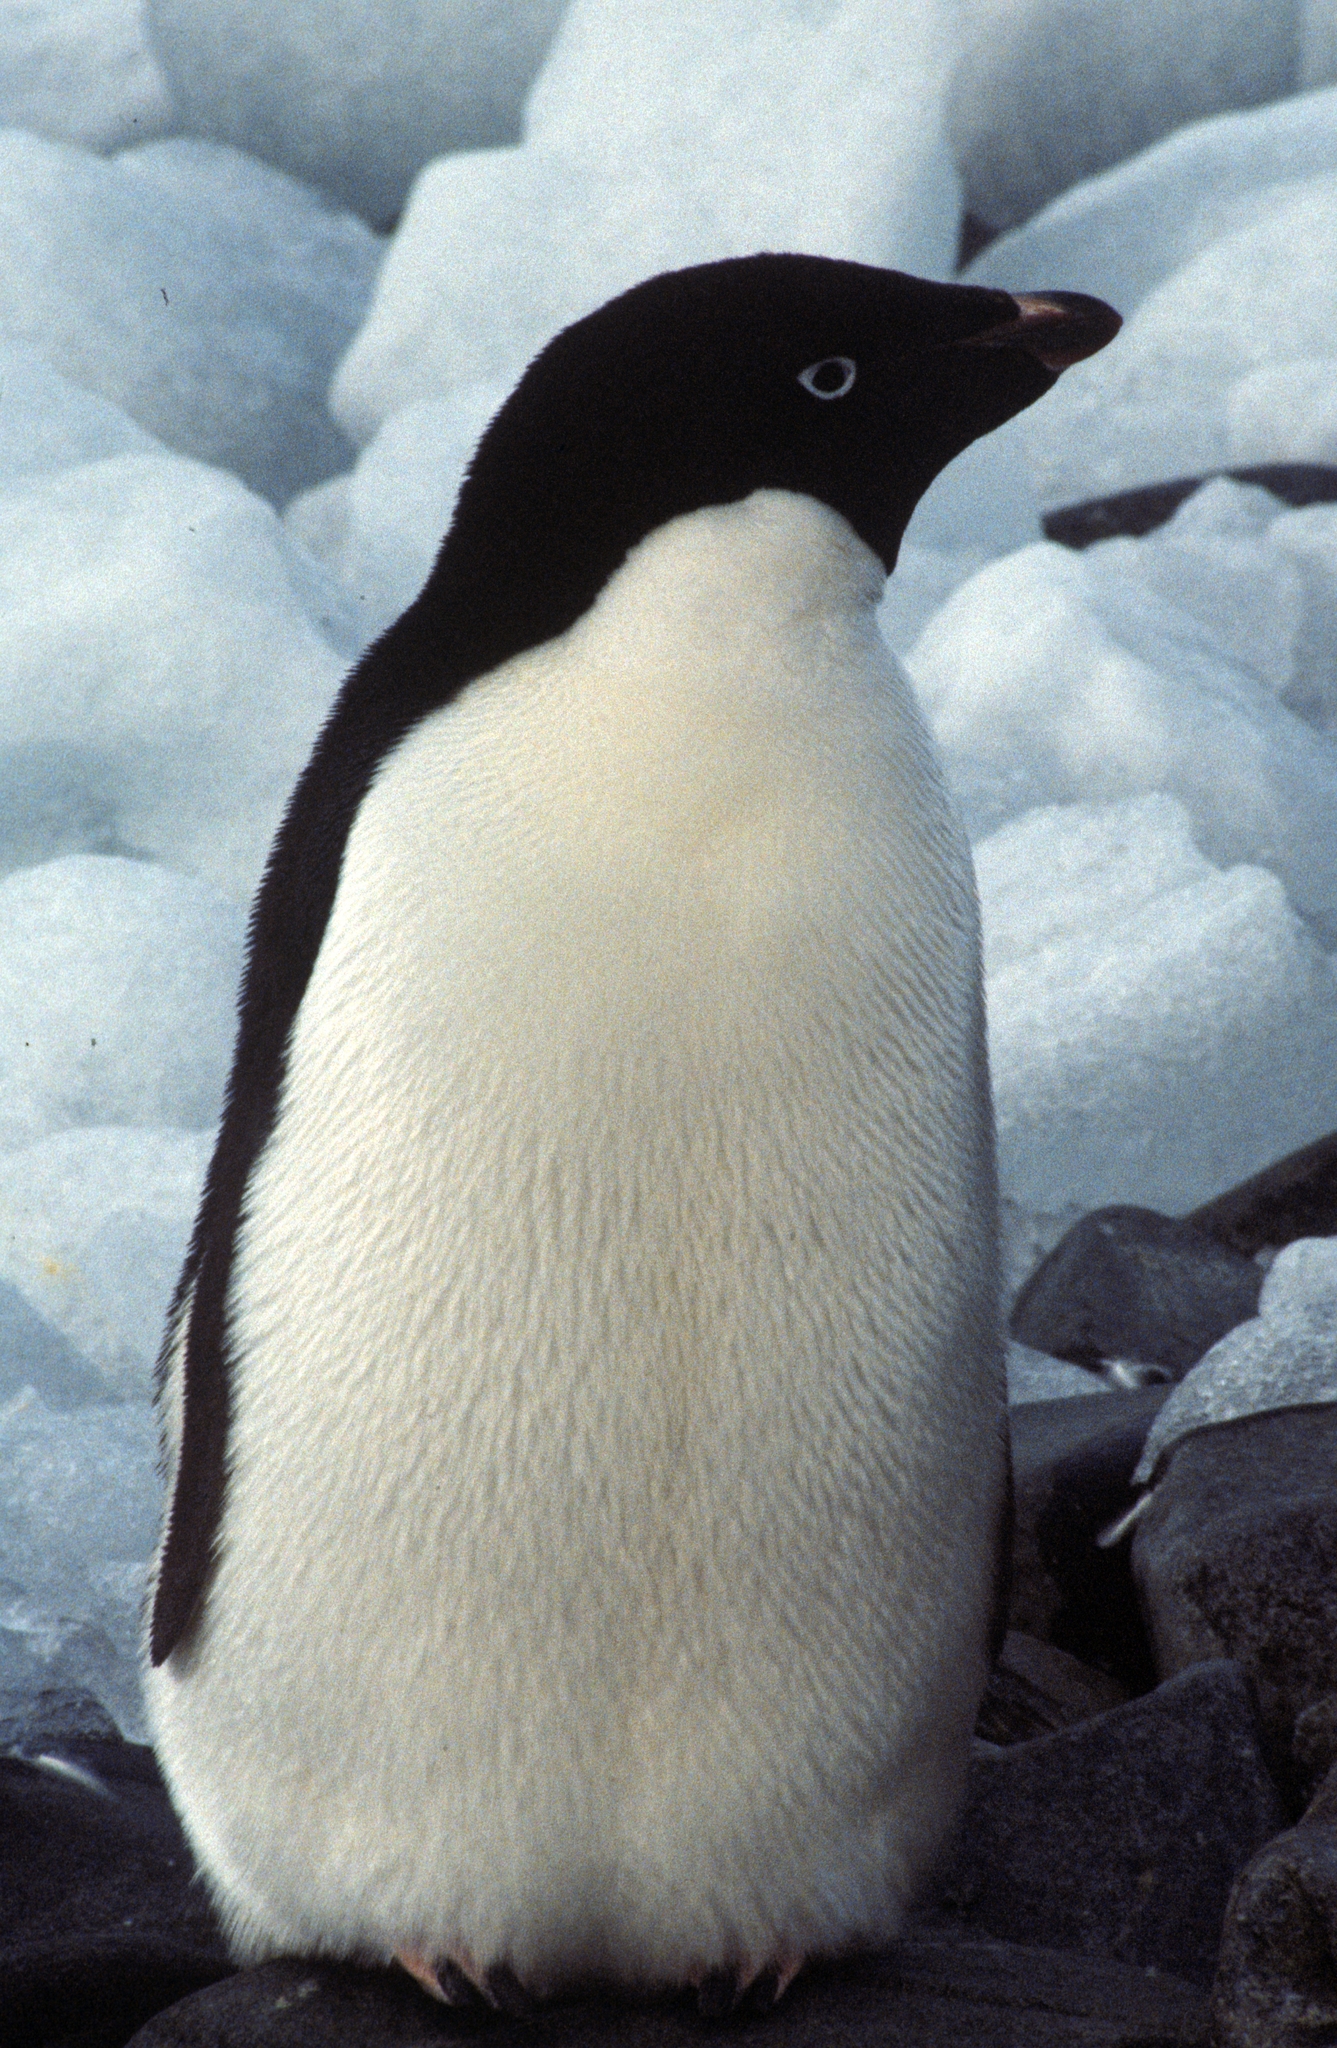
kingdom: Animalia
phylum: Chordata
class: Aves
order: Sphenisciformes
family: Spheniscidae
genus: Pygoscelis
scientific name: Pygoscelis adeliae
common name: Adelie penguin
